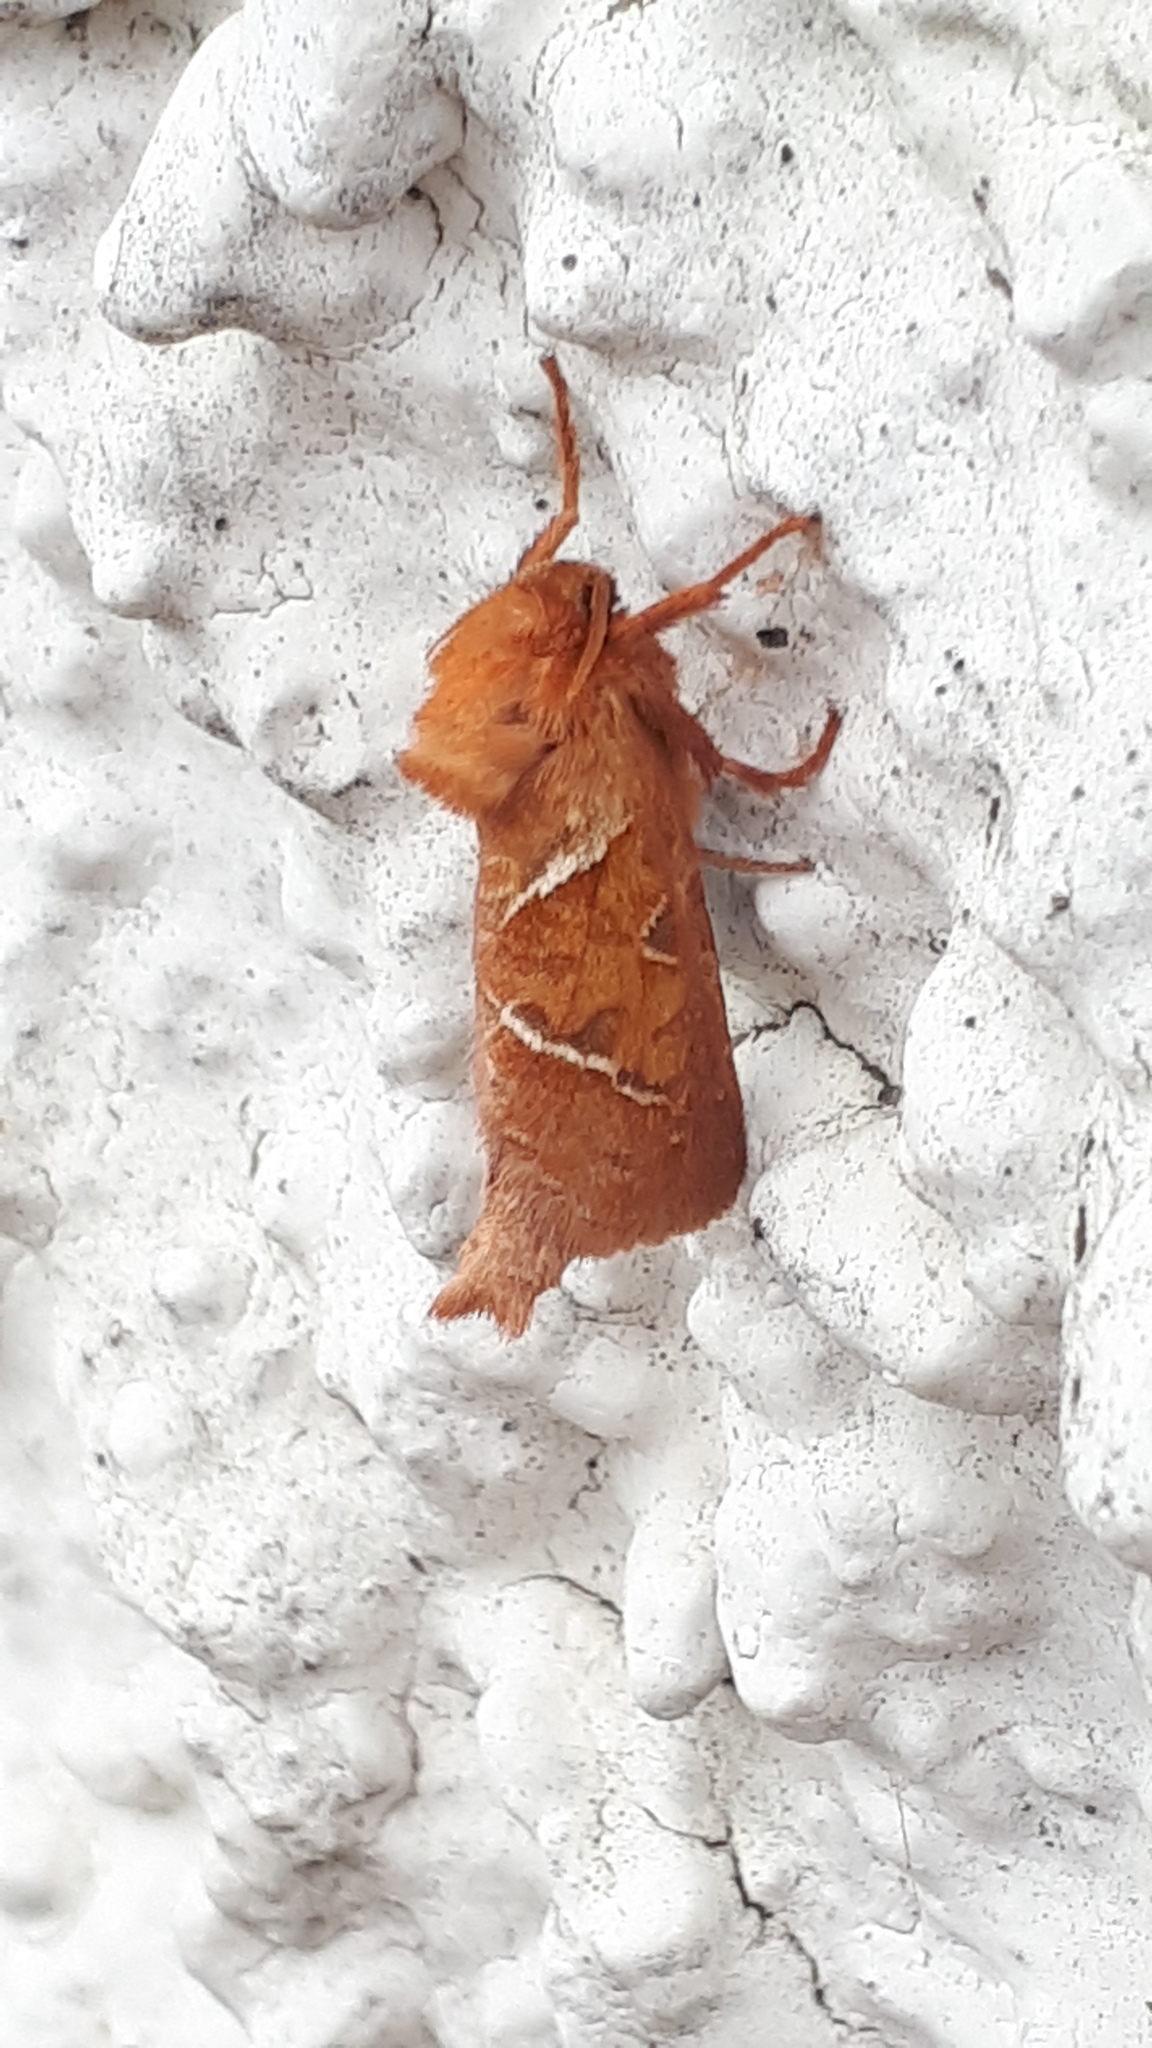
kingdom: Animalia
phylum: Arthropoda
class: Insecta
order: Lepidoptera
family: Hepialidae
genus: Triodia
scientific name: Triodia sylvina
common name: Orange swift
